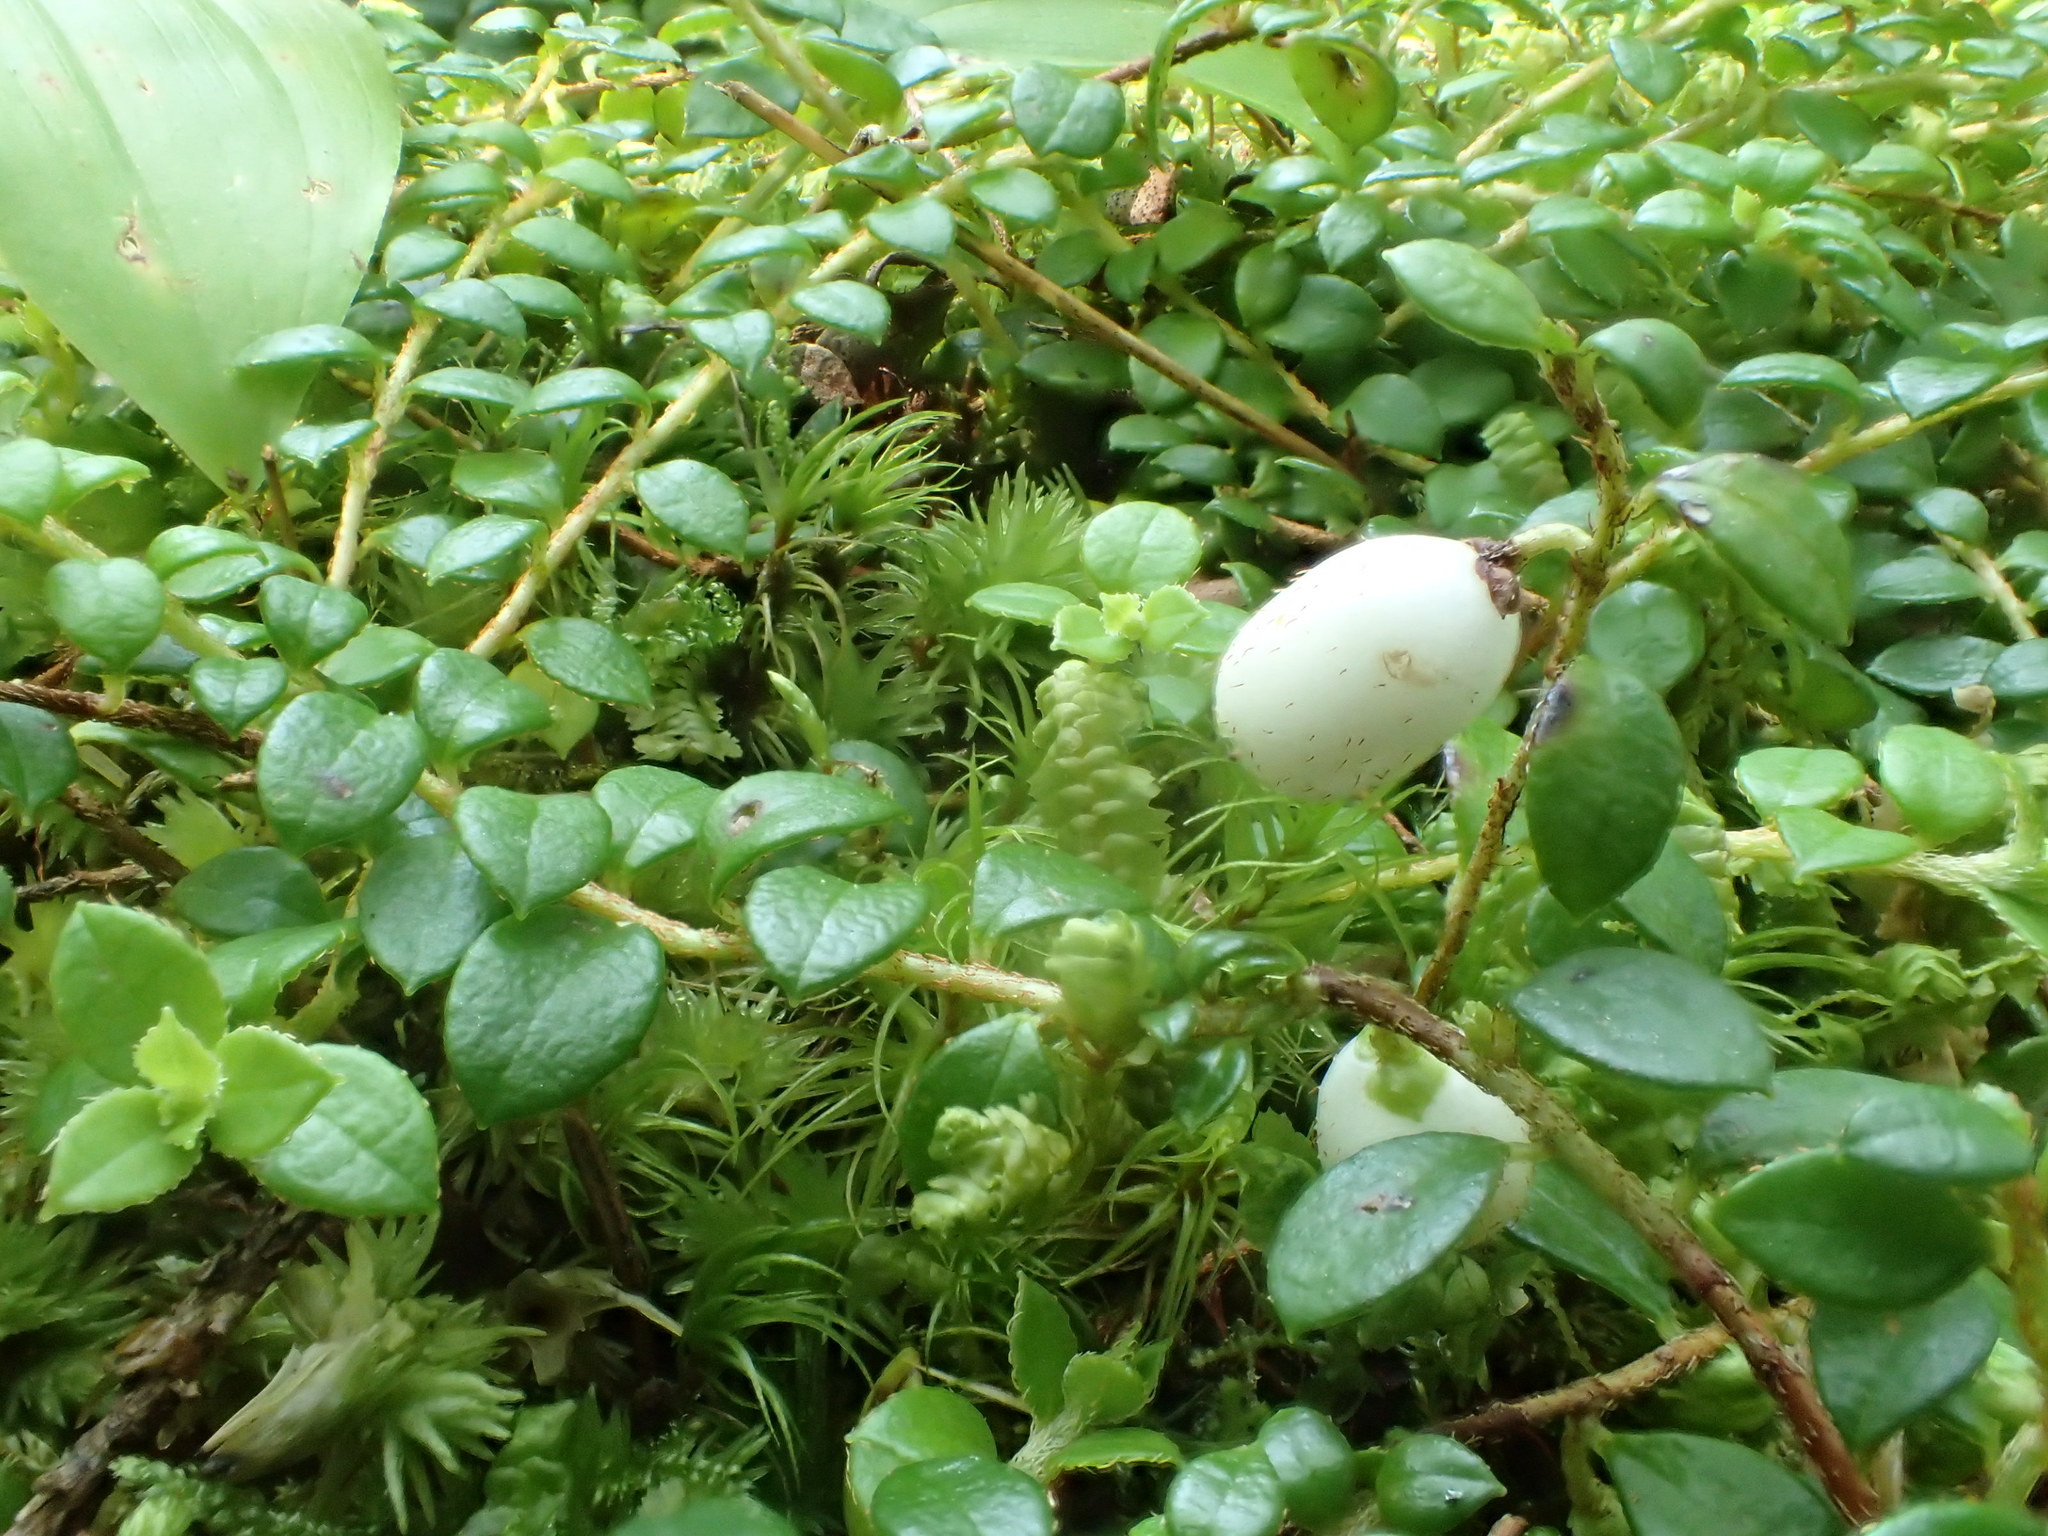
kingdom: Plantae
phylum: Tracheophyta
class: Magnoliopsida
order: Ericales
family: Ericaceae
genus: Gaultheria
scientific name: Gaultheria hispidula
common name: Cancer wintergreen
